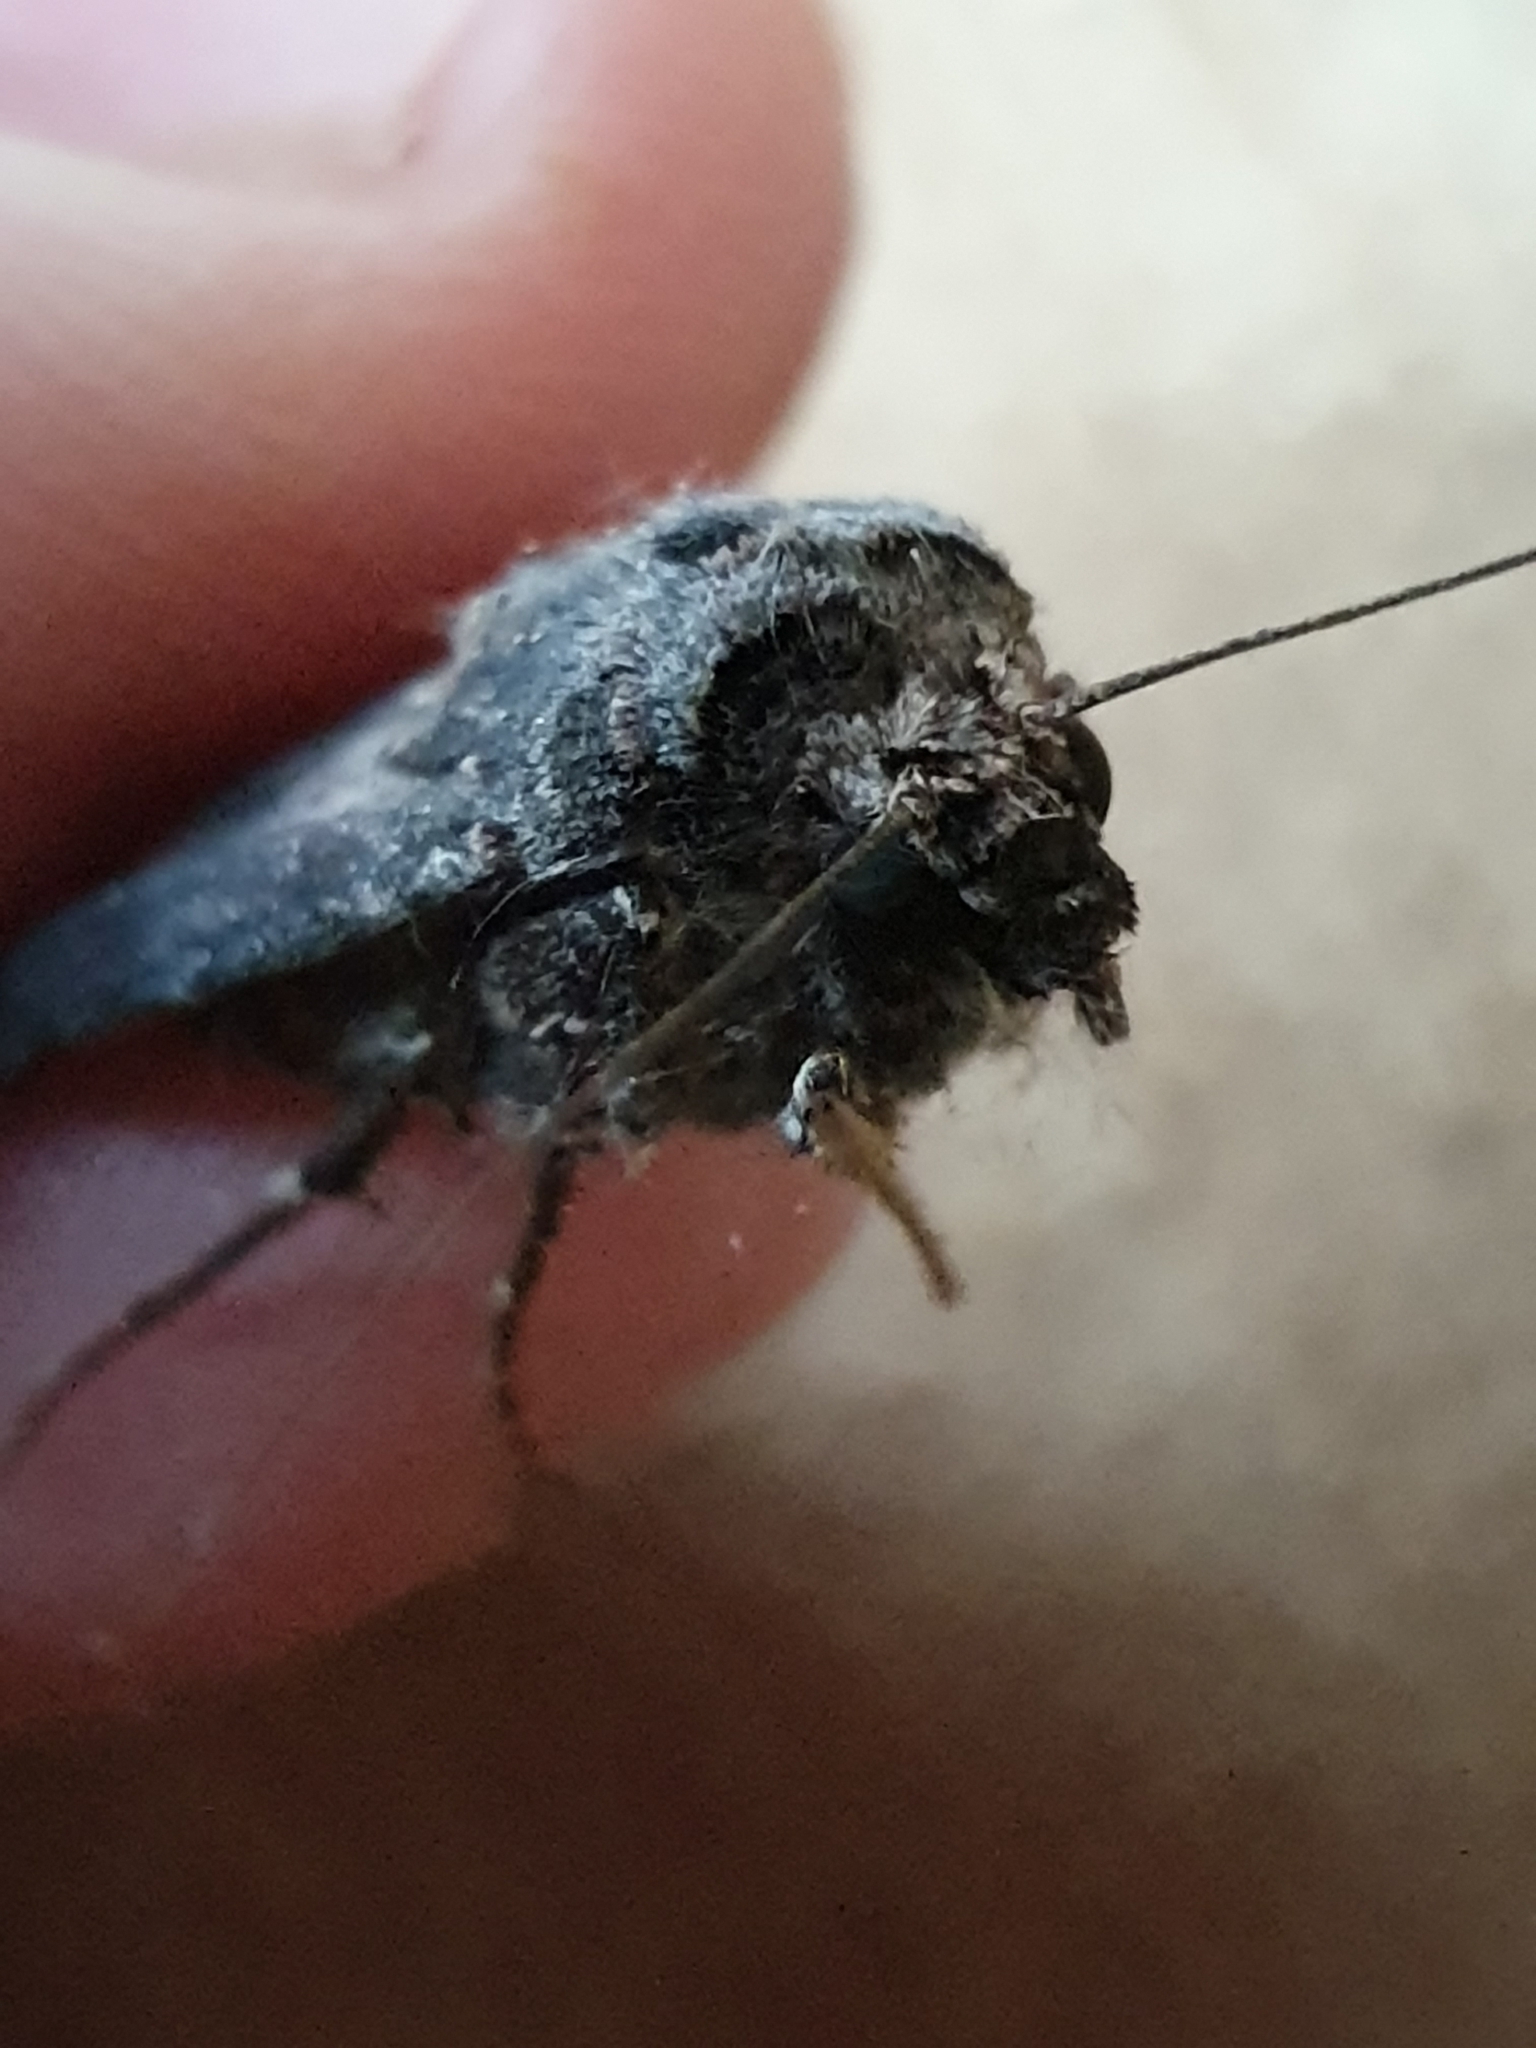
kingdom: Animalia
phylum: Arthropoda
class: Insecta
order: Lepidoptera
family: Noctuidae
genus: Agrotis
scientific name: Agrotis ipsilon
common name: Dark sword-grass
